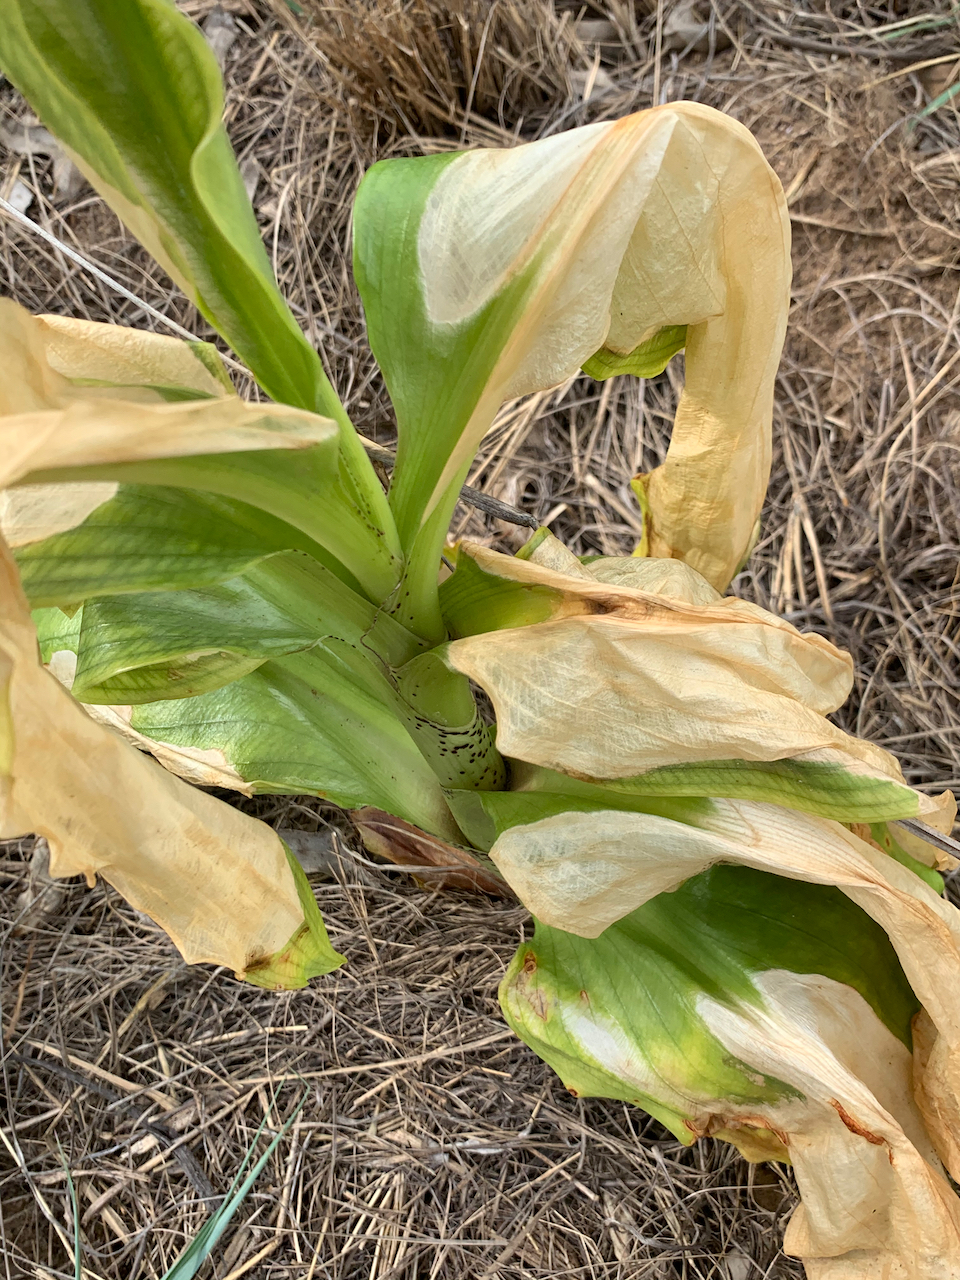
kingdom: Plantae
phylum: Tracheophyta
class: Liliopsida
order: Asparagales
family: Amaryllidaceae
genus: Scadoxus
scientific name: Scadoxus puniceus
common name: Royal-paintbrush
